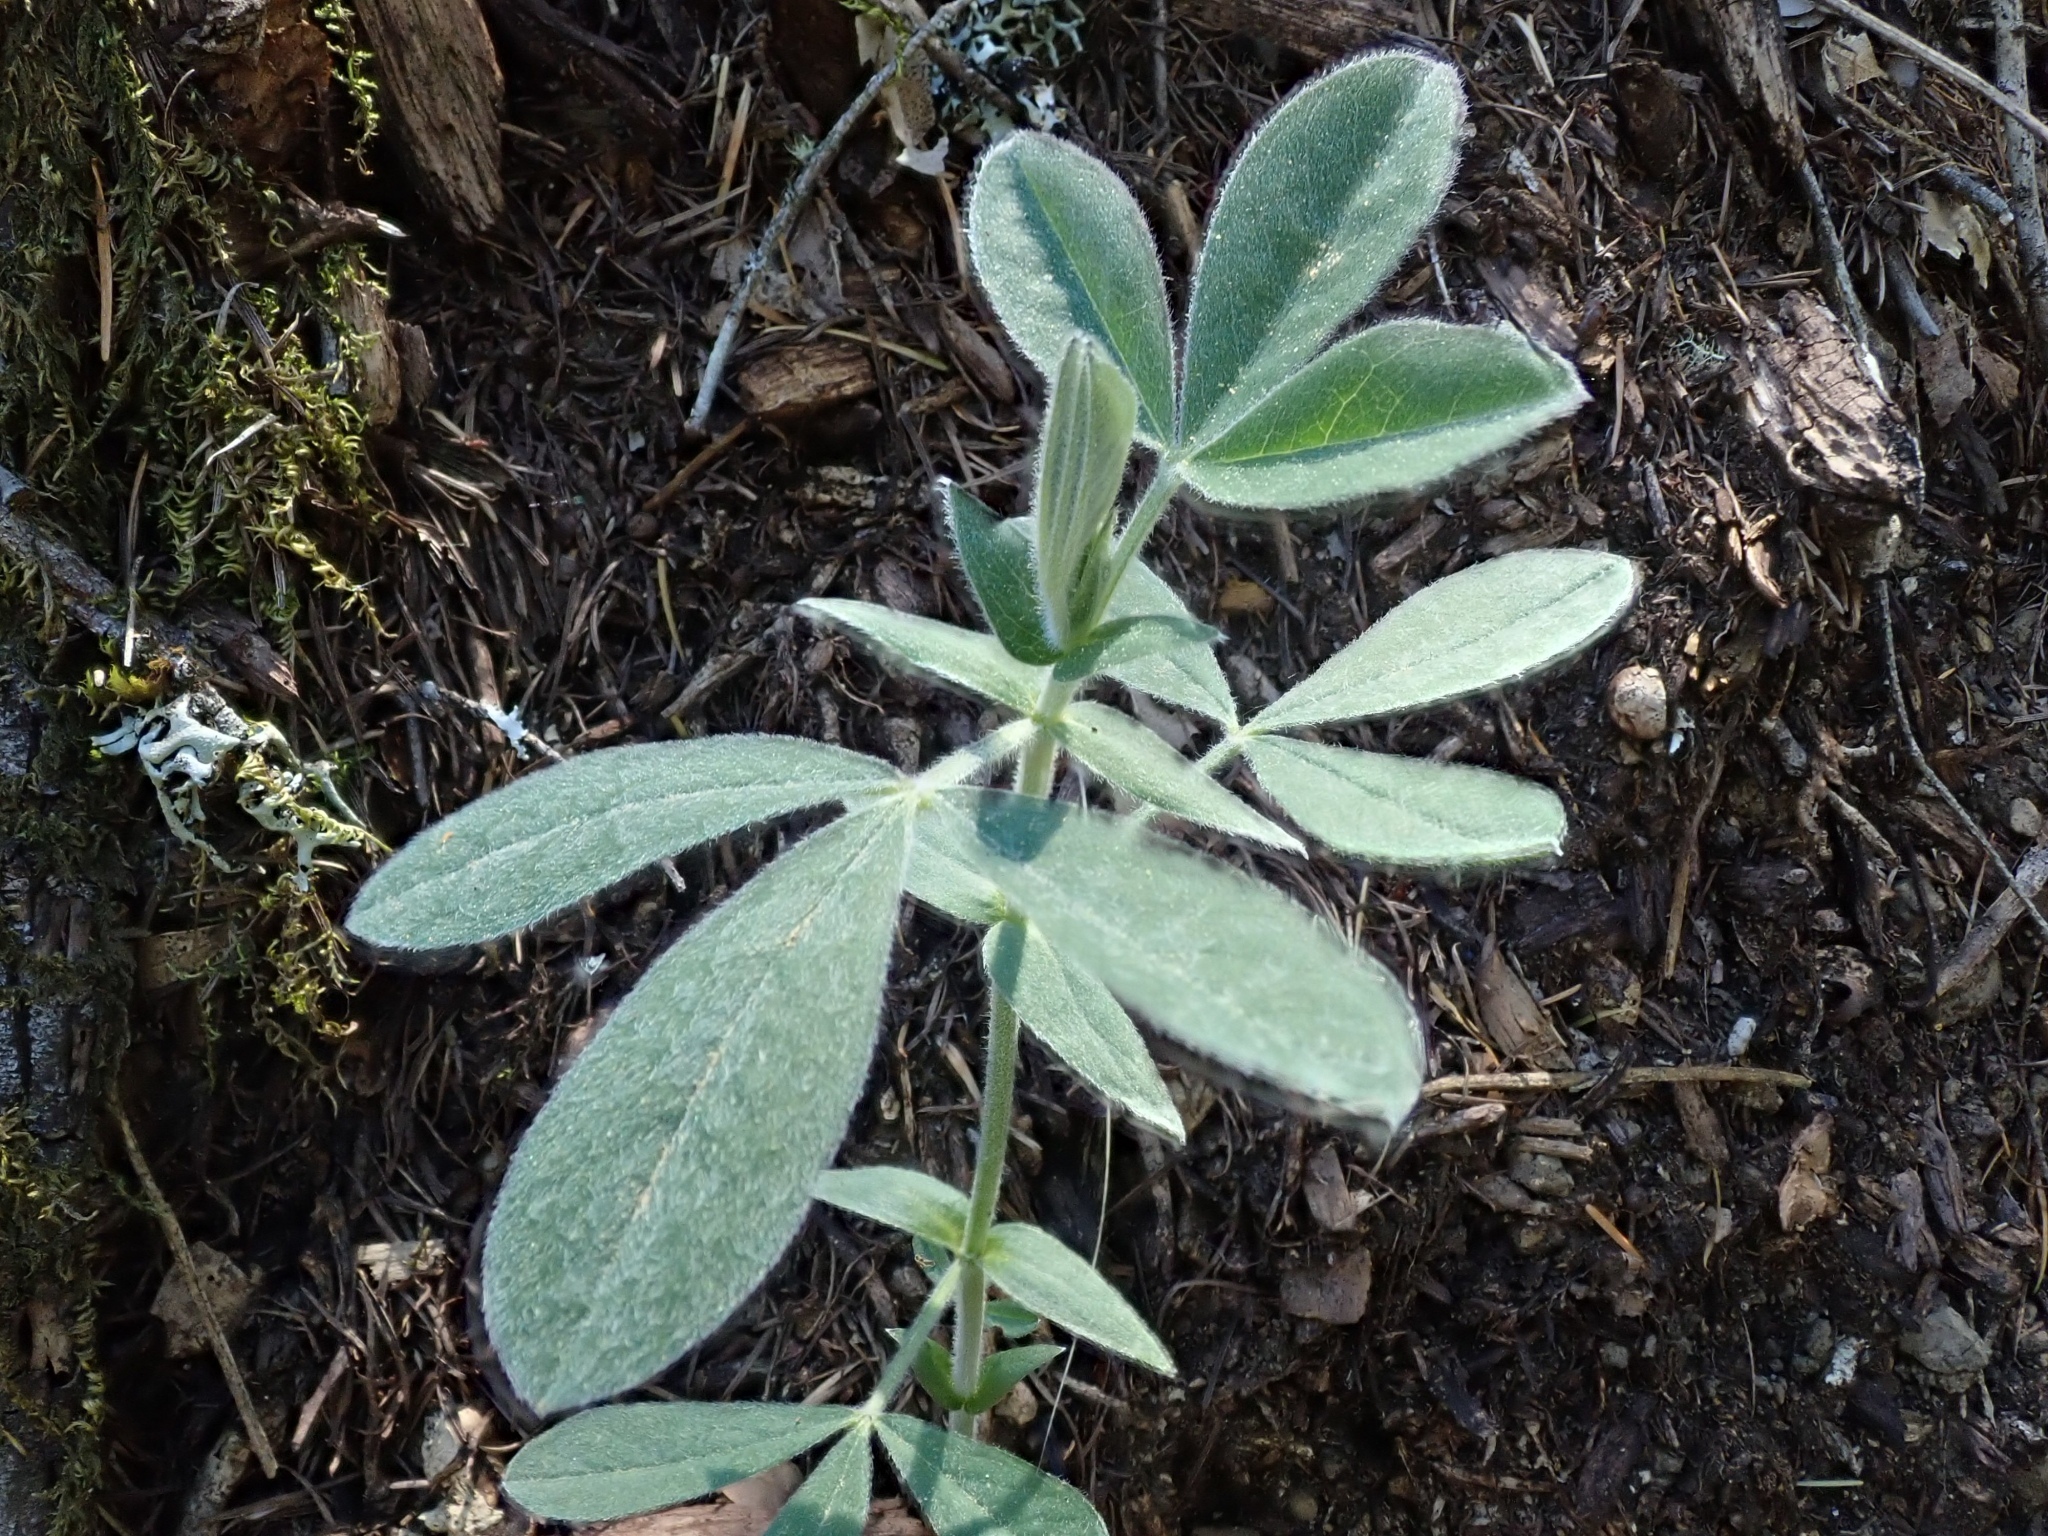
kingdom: Plantae
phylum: Tracheophyta
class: Magnoliopsida
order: Fabales
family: Fabaceae
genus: Thermopsis
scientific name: Thermopsis californica
